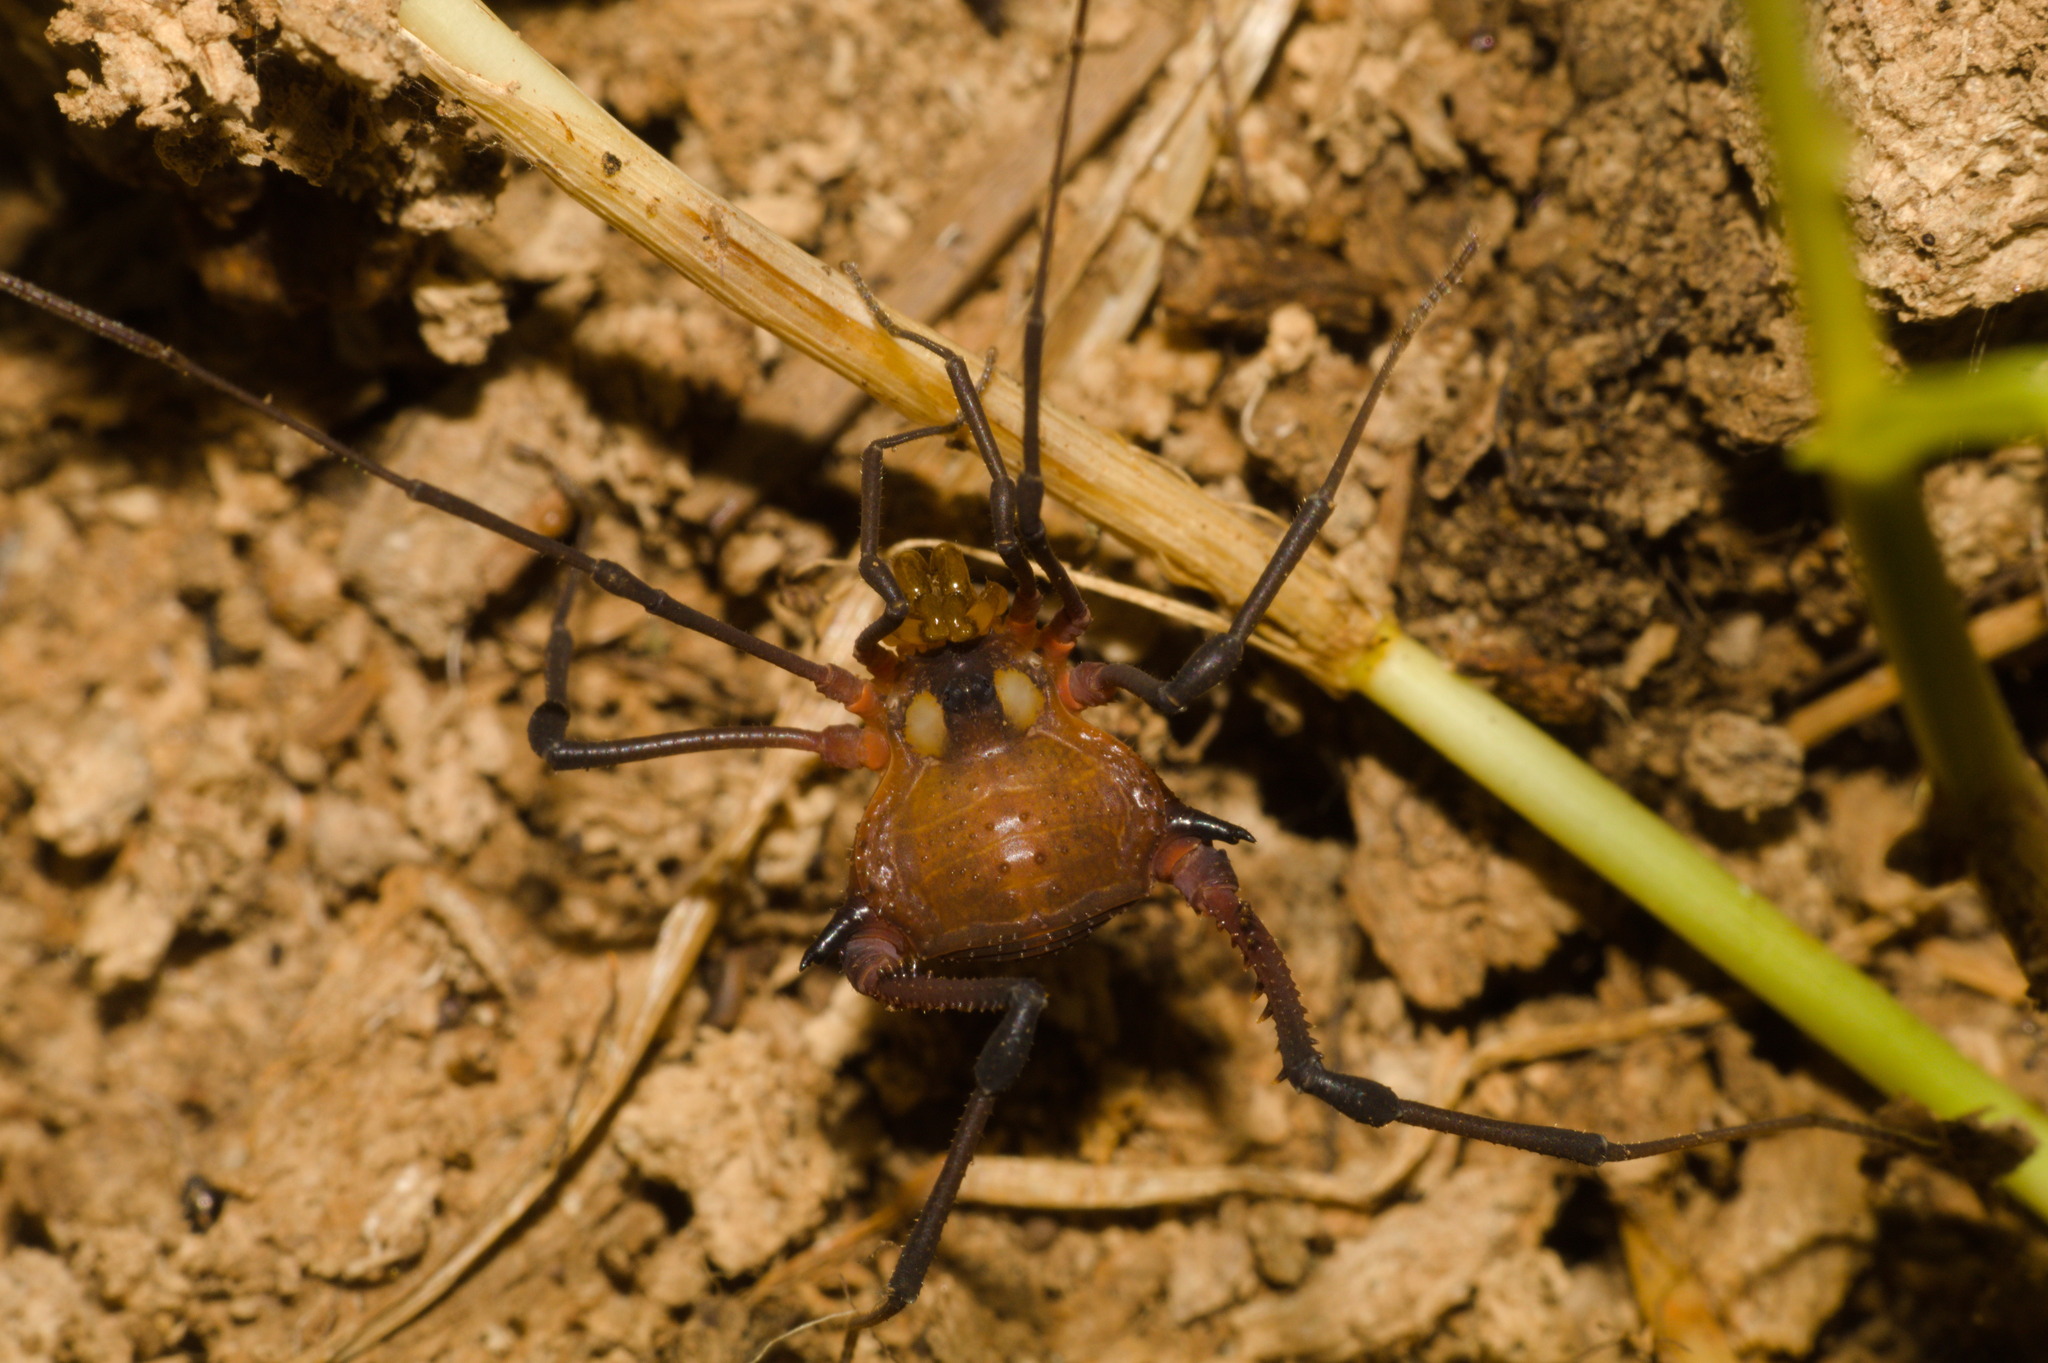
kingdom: Animalia
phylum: Arthropoda
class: Arachnida
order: Opiliones
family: Gonyleptidae
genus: Parampheres
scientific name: Parampheres bimaculatus
